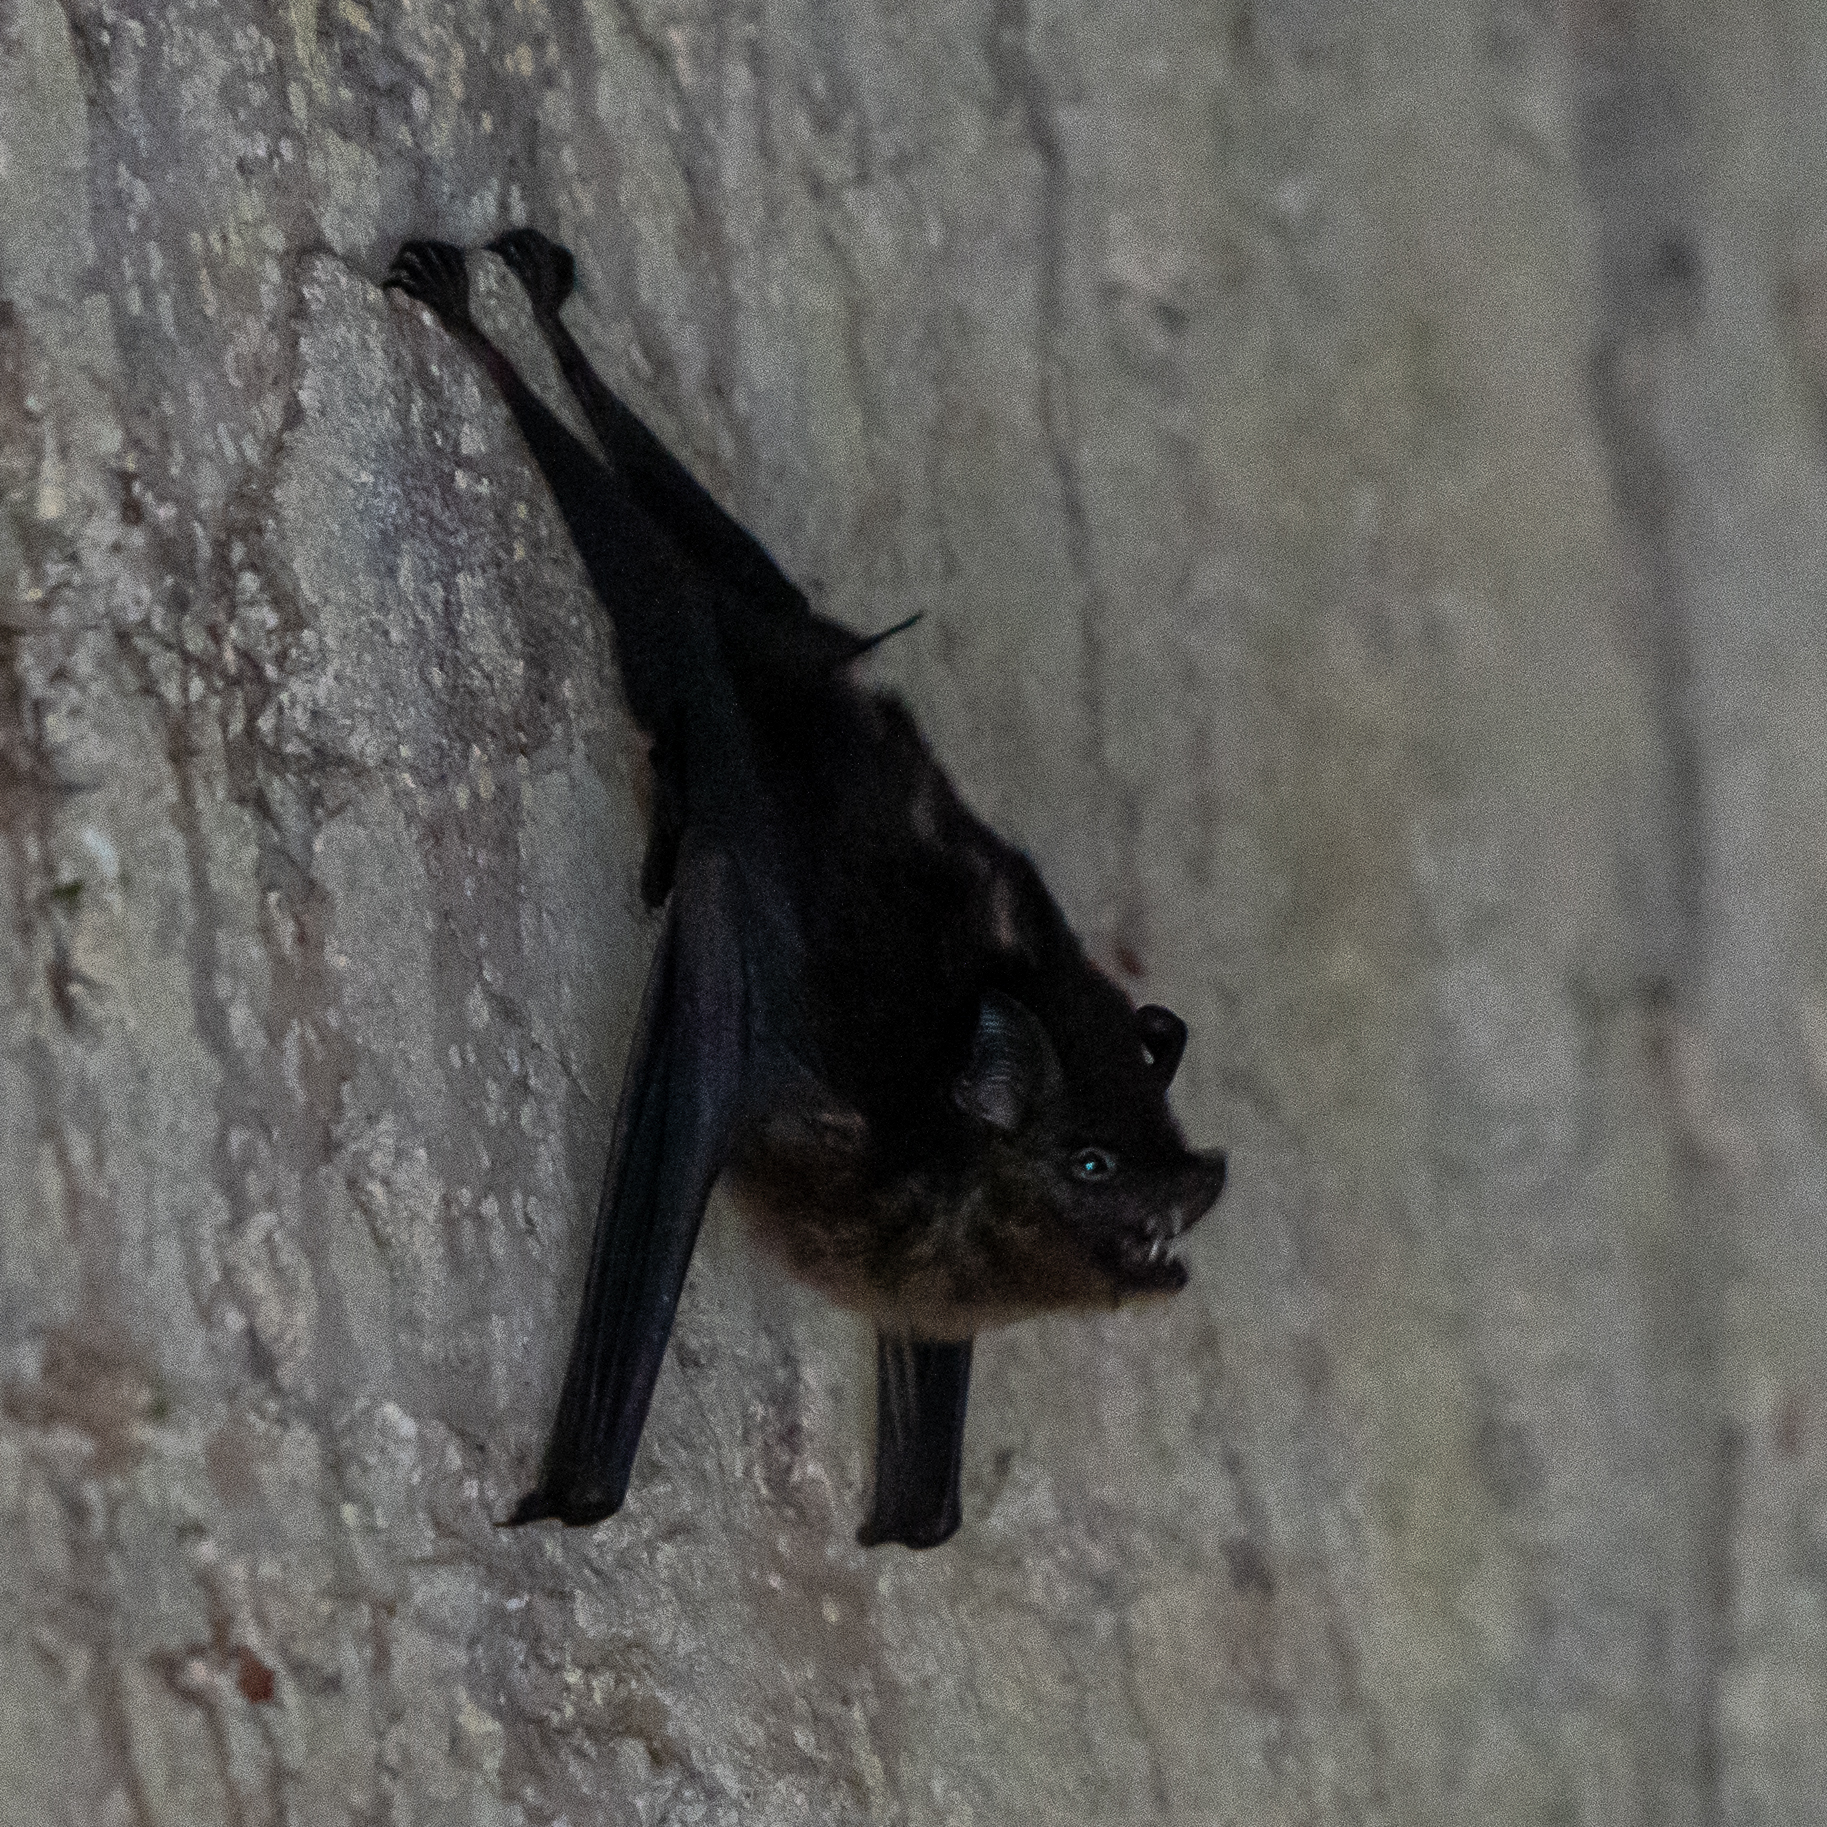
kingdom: Animalia
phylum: Chordata
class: Mammalia
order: Chiroptera
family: Emballonuridae
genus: Saccopteryx
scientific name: Saccopteryx bilineata
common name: Greater sac-winged bat
